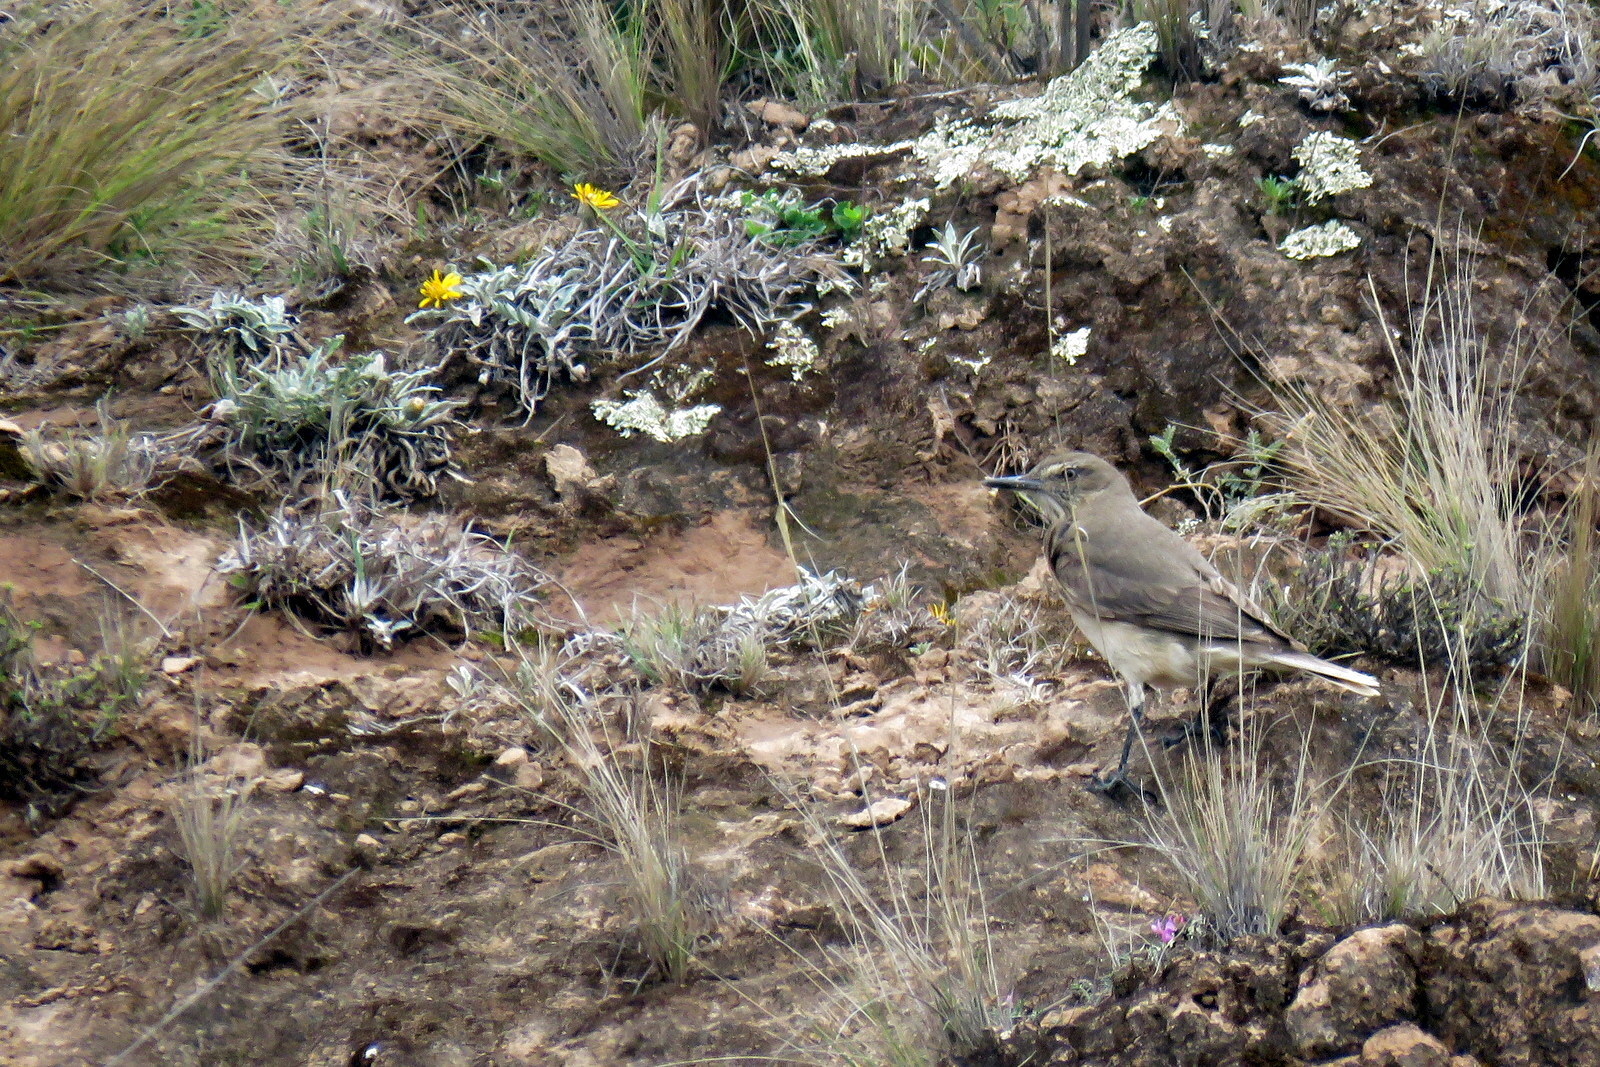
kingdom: Animalia
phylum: Chordata
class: Aves
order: Passeriformes
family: Tyrannidae
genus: Agriornis
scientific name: Agriornis montanus
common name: Black-billed shrike-tyrant
